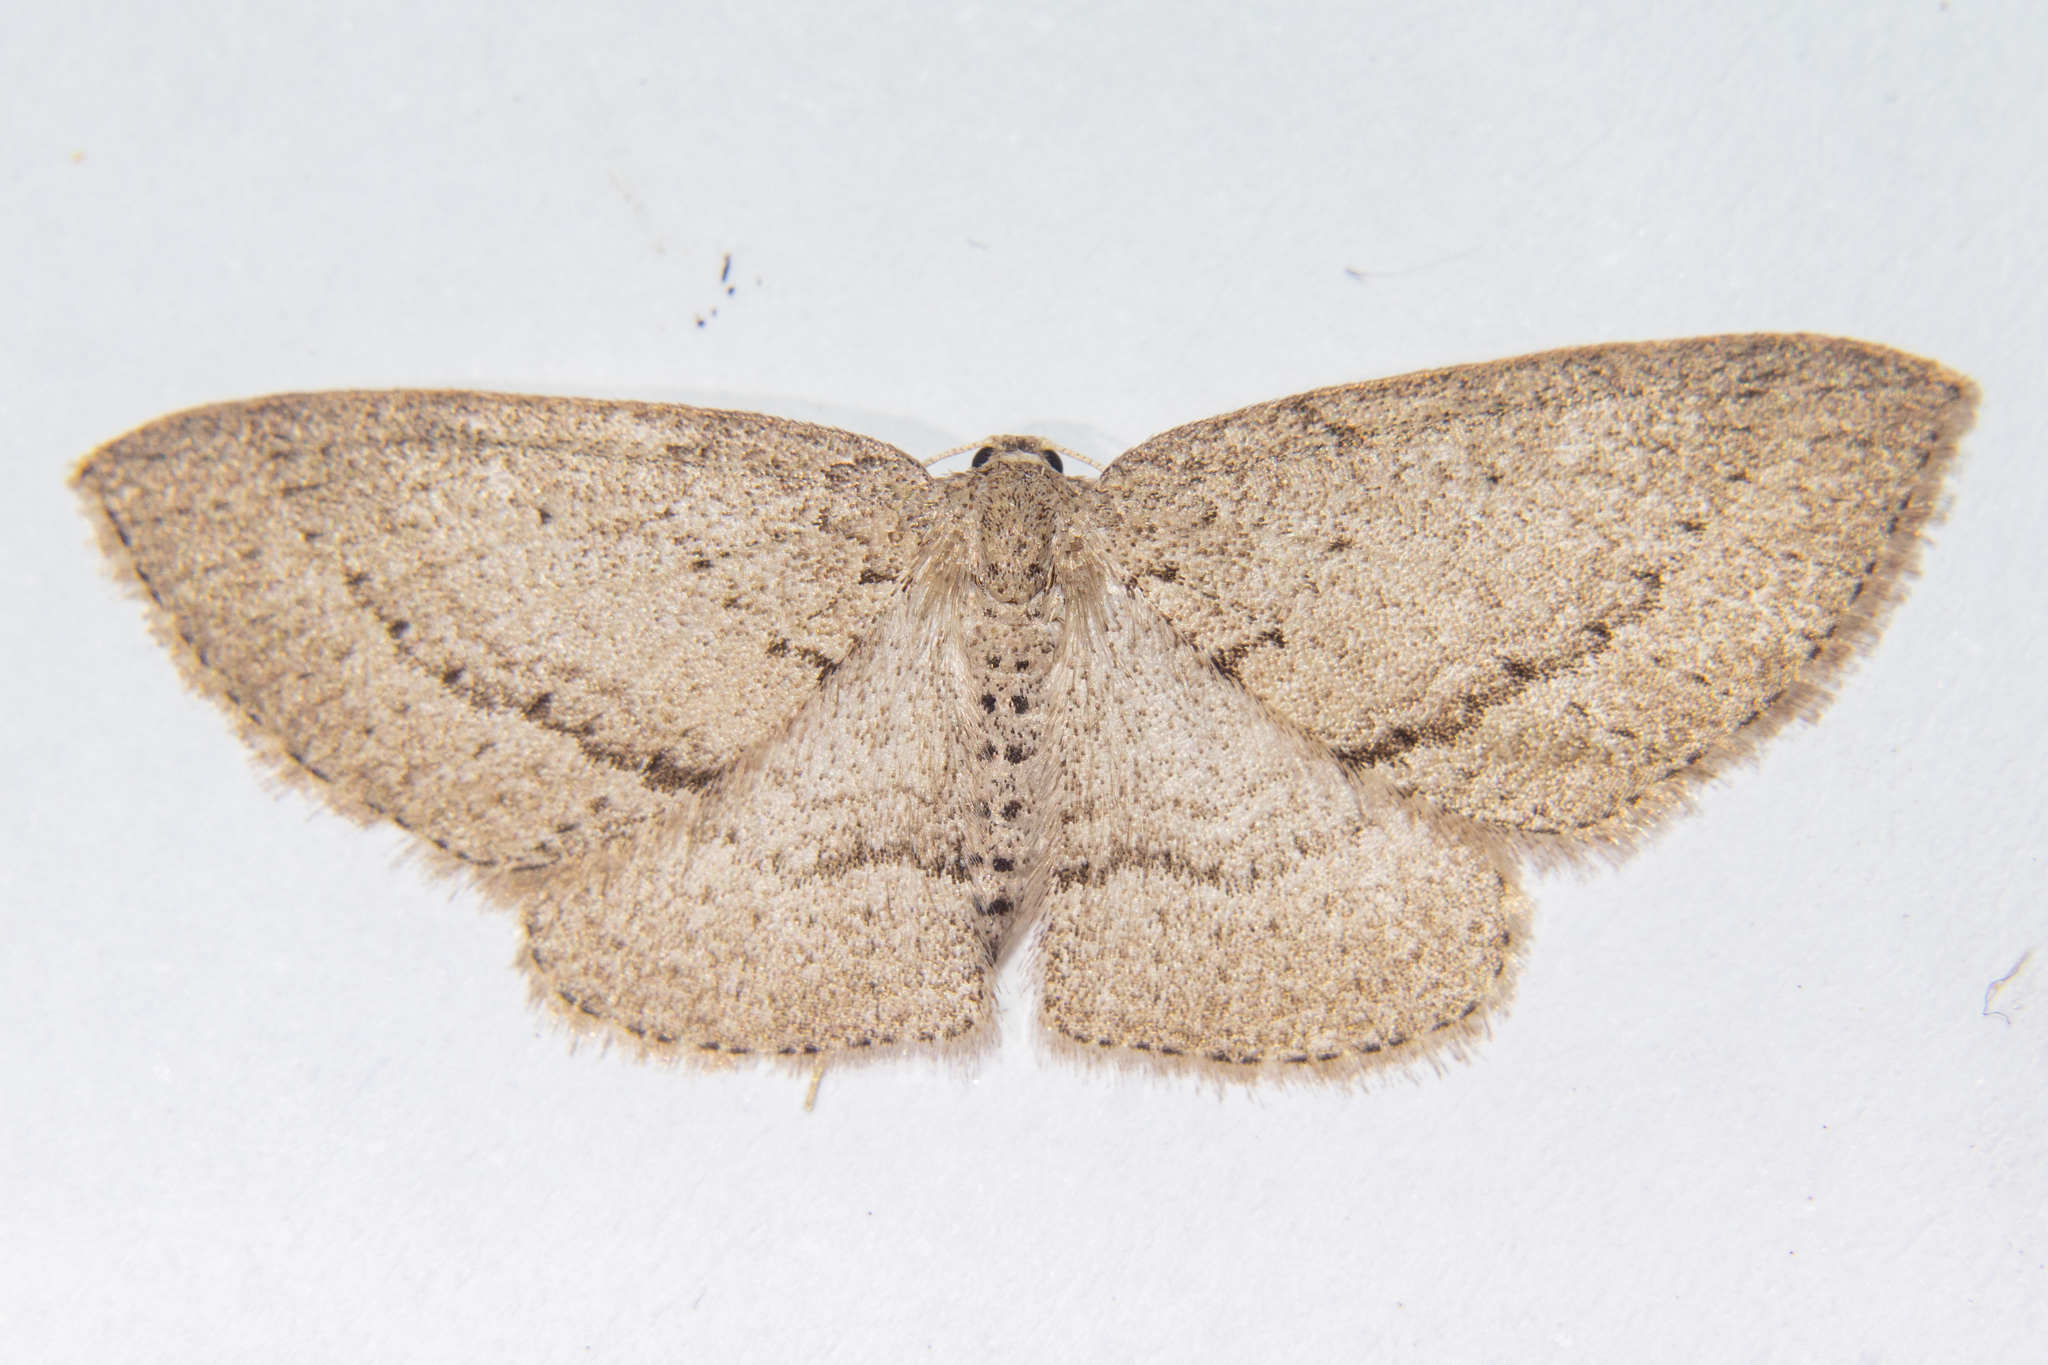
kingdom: Animalia
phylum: Arthropoda
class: Insecta
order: Lepidoptera
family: Geometridae
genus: Poecilasthena
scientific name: Poecilasthena schistaria
